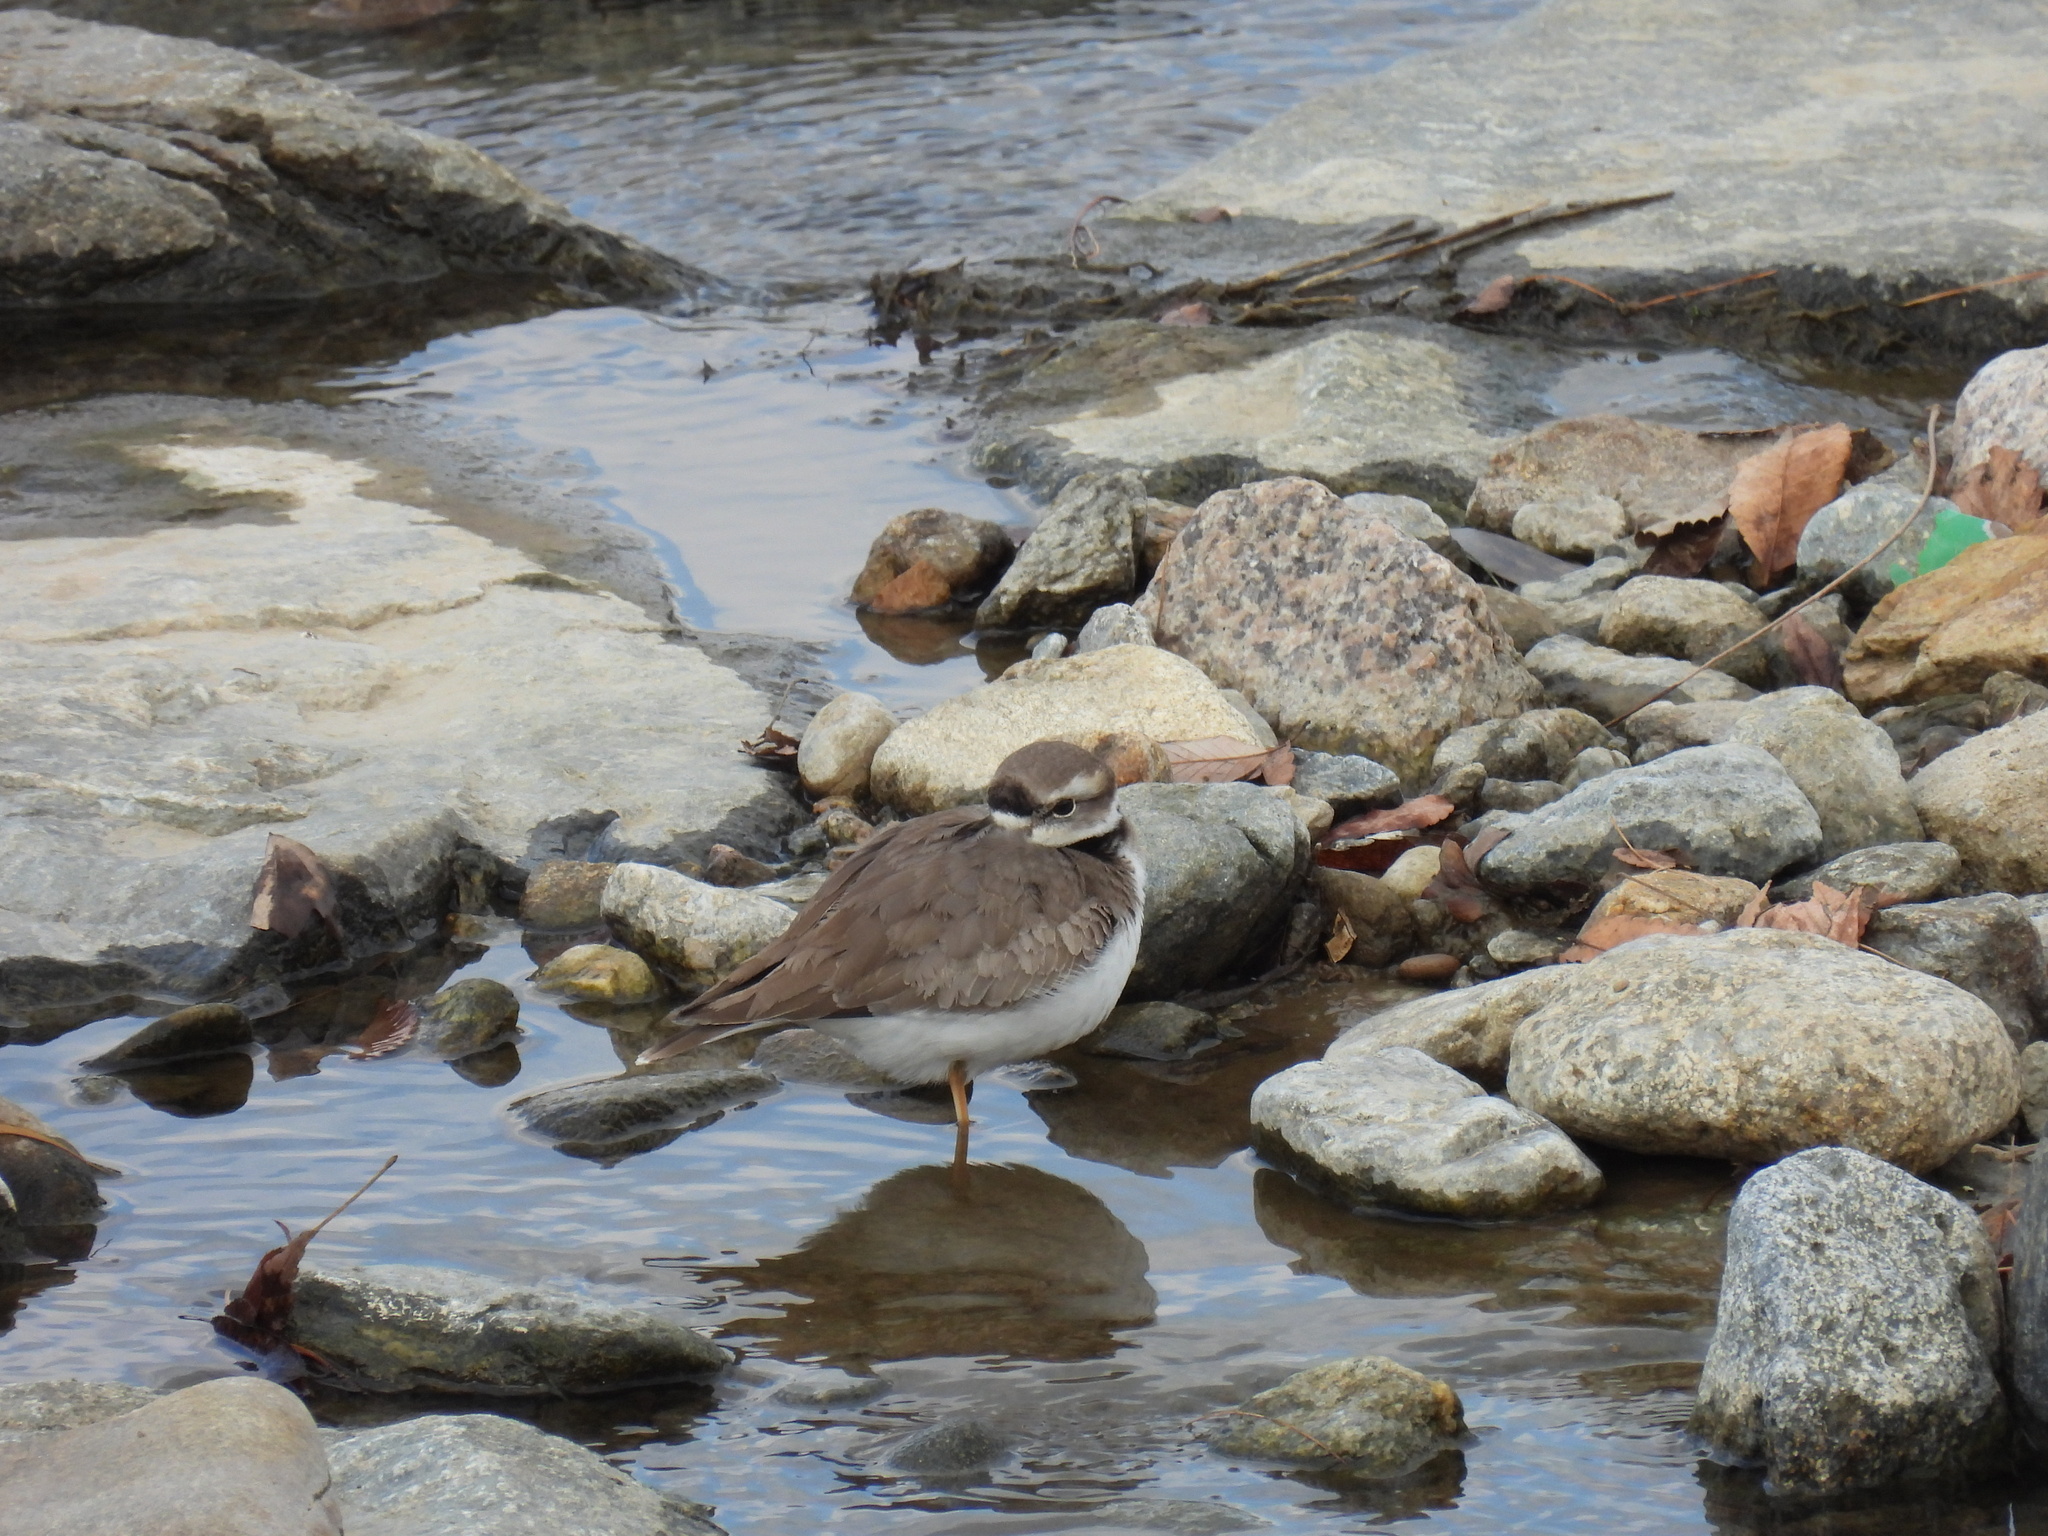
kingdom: Animalia
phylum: Chordata
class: Aves
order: Charadriiformes
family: Charadriidae
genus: Charadrius
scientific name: Charadrius placidus
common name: Long-billed plover
